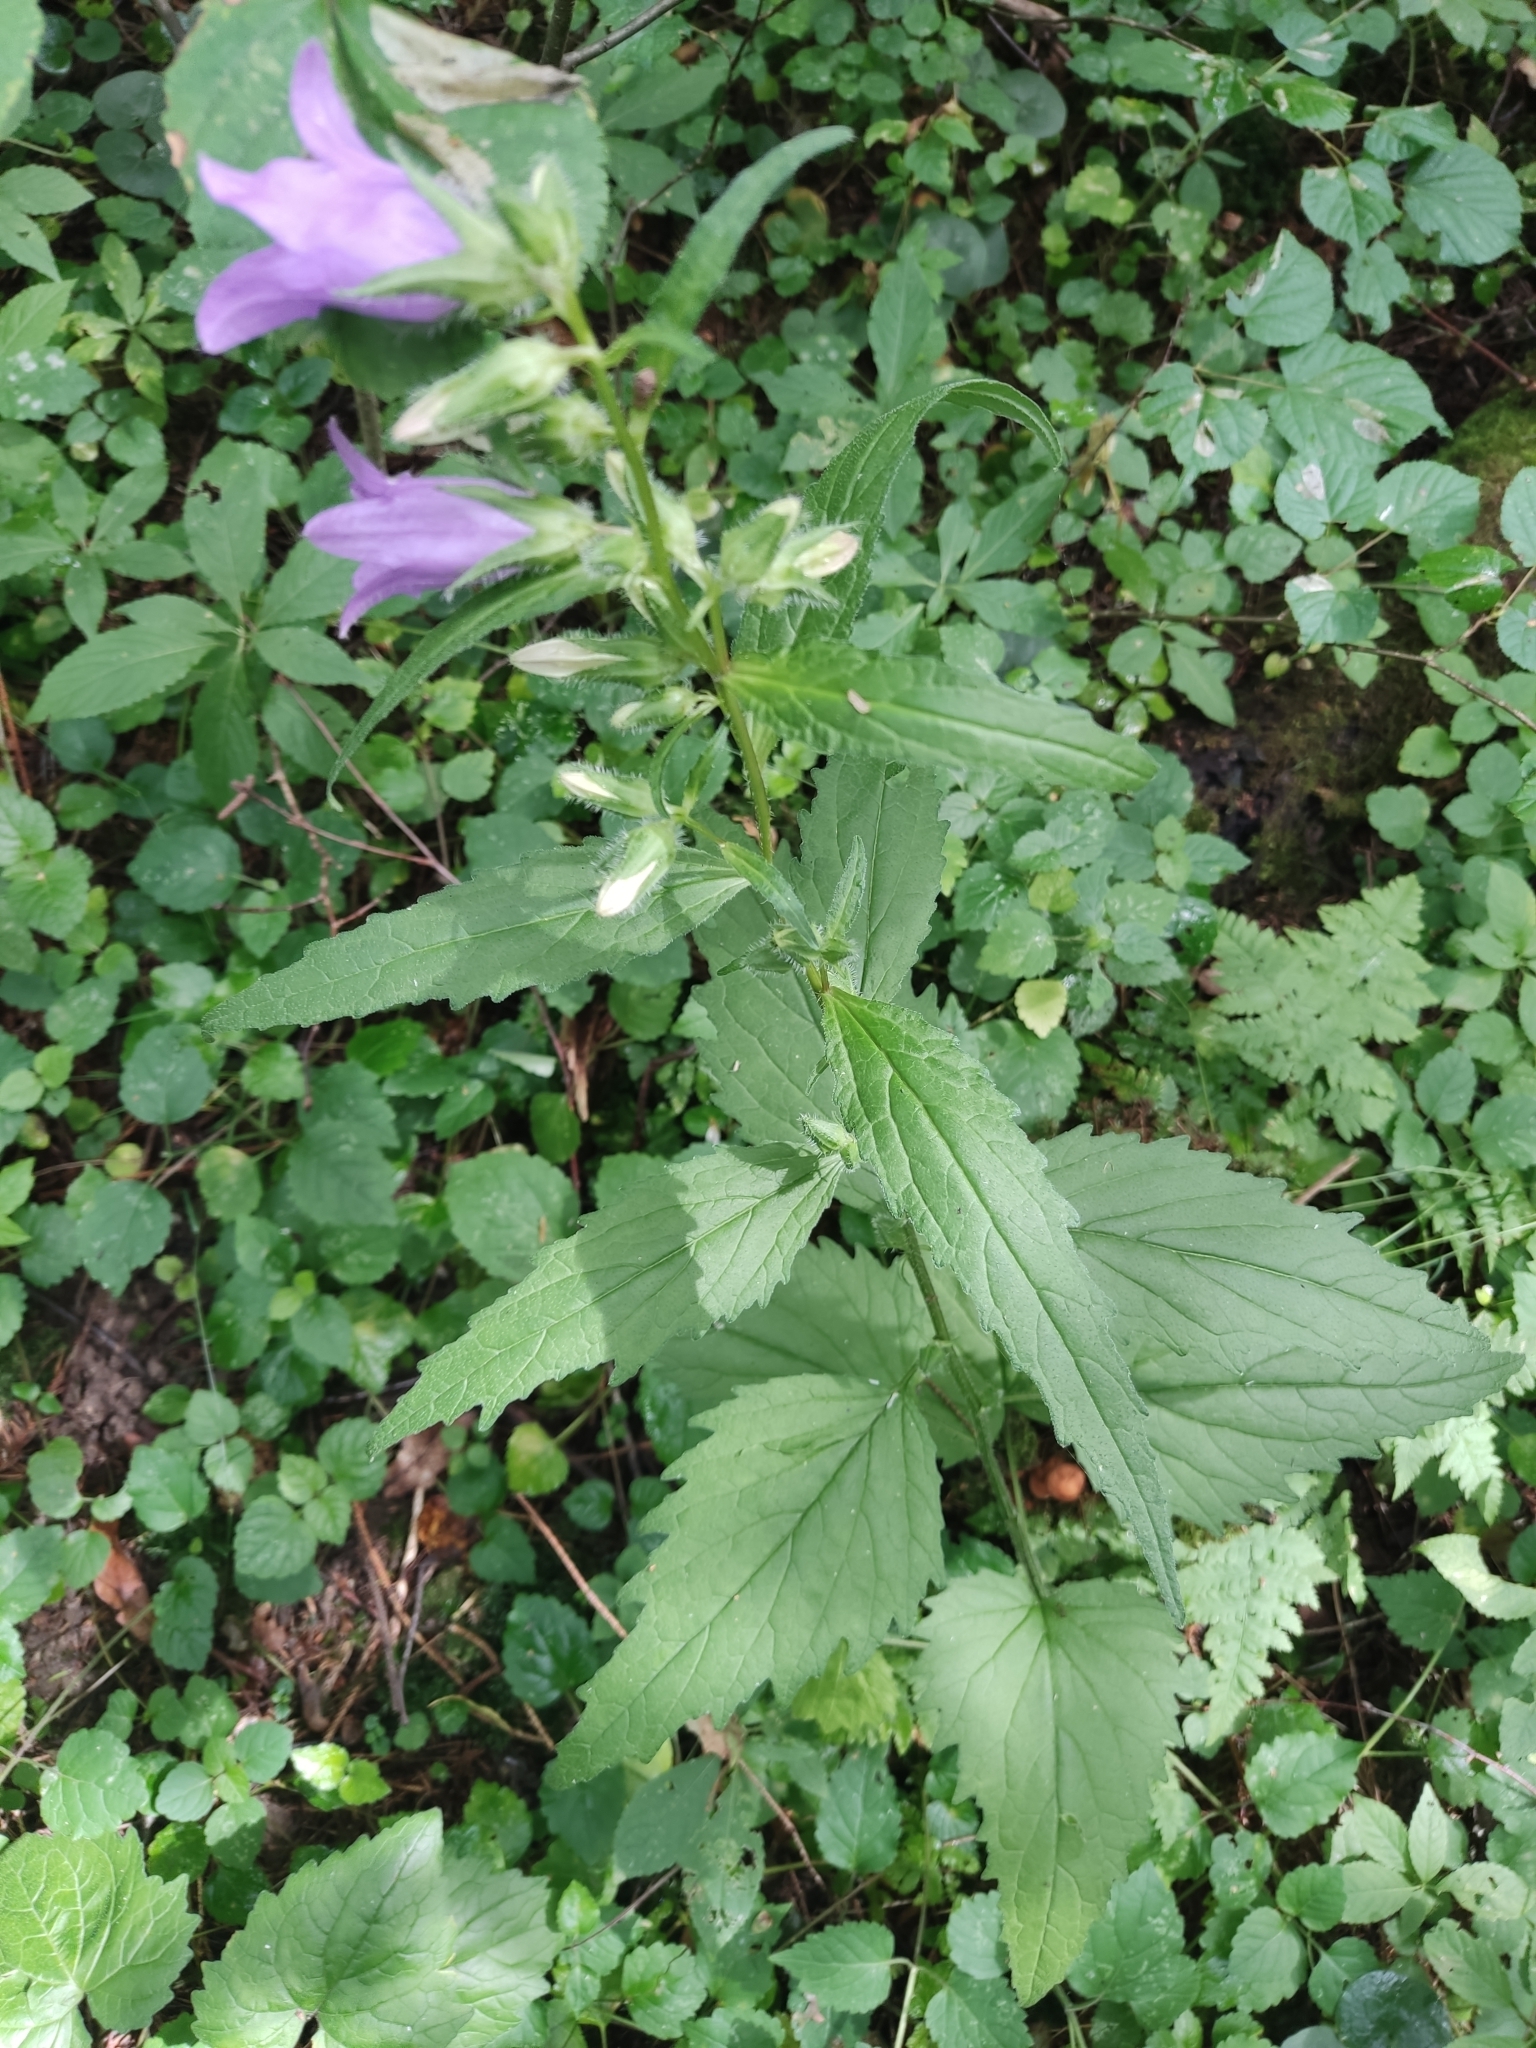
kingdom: Plantae
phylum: Tracheophyta
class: Magnoliopsida
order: Asterales
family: Campanulaceae
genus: Campanula
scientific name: Campanula trachelium
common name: Nettle-leaved bellflower
